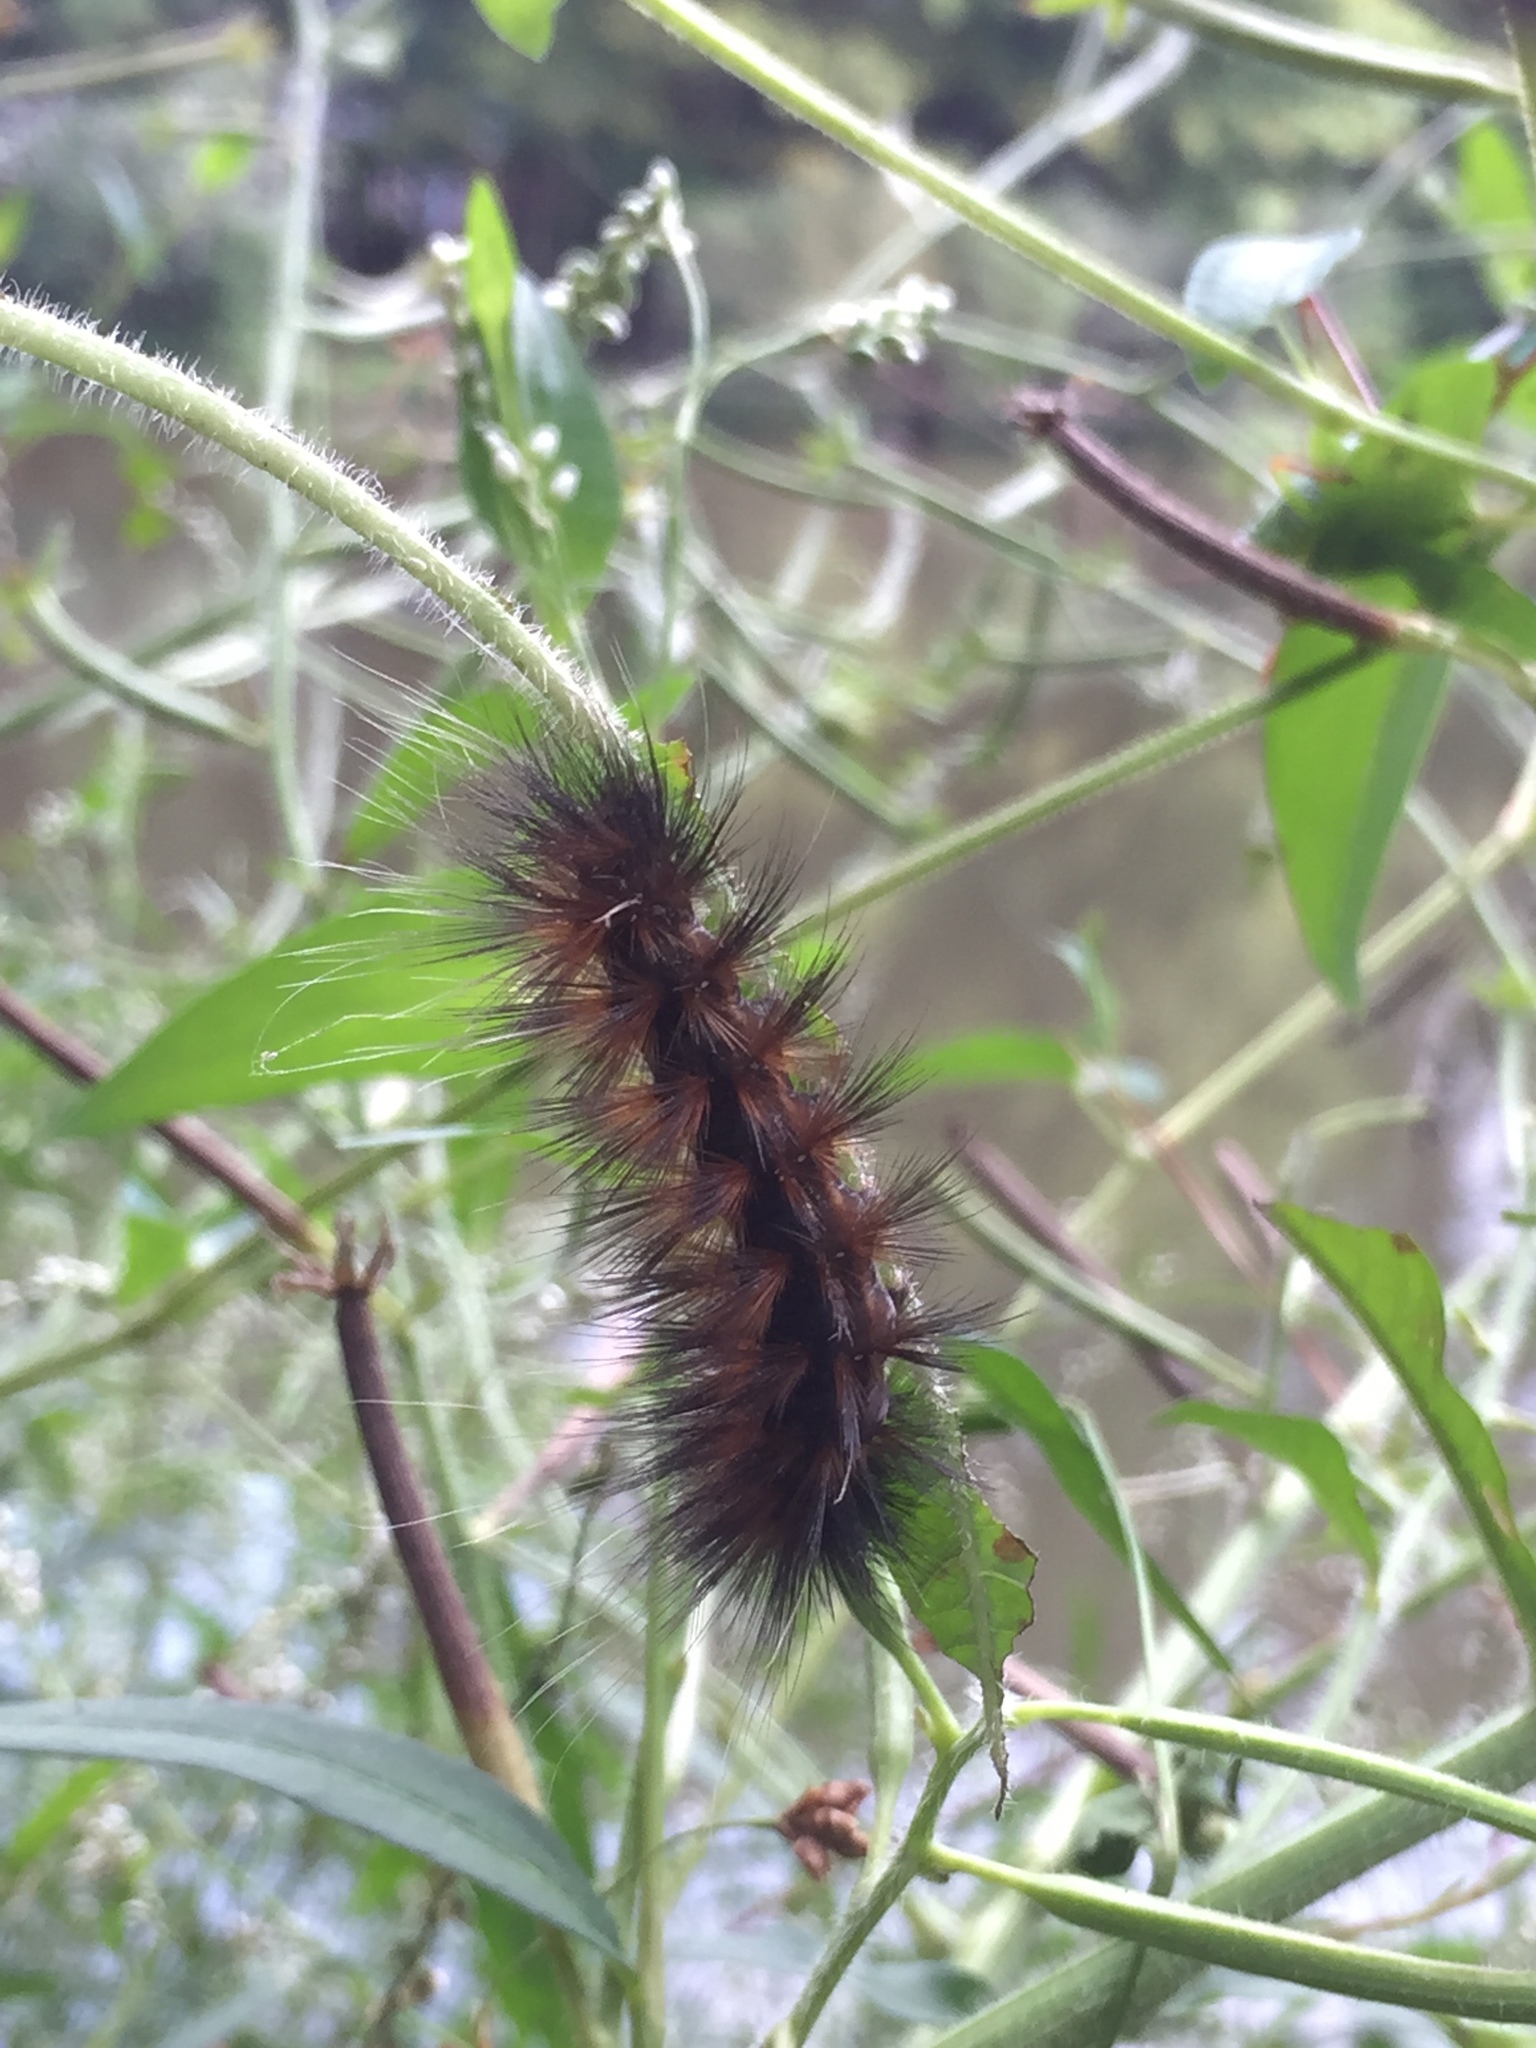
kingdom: Animalia
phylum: Arthropoda
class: Insecta
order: Lepidoptera
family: Erebidae
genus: Spilosoma
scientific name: Spilosoma virginica
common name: Virginia tiger moth
